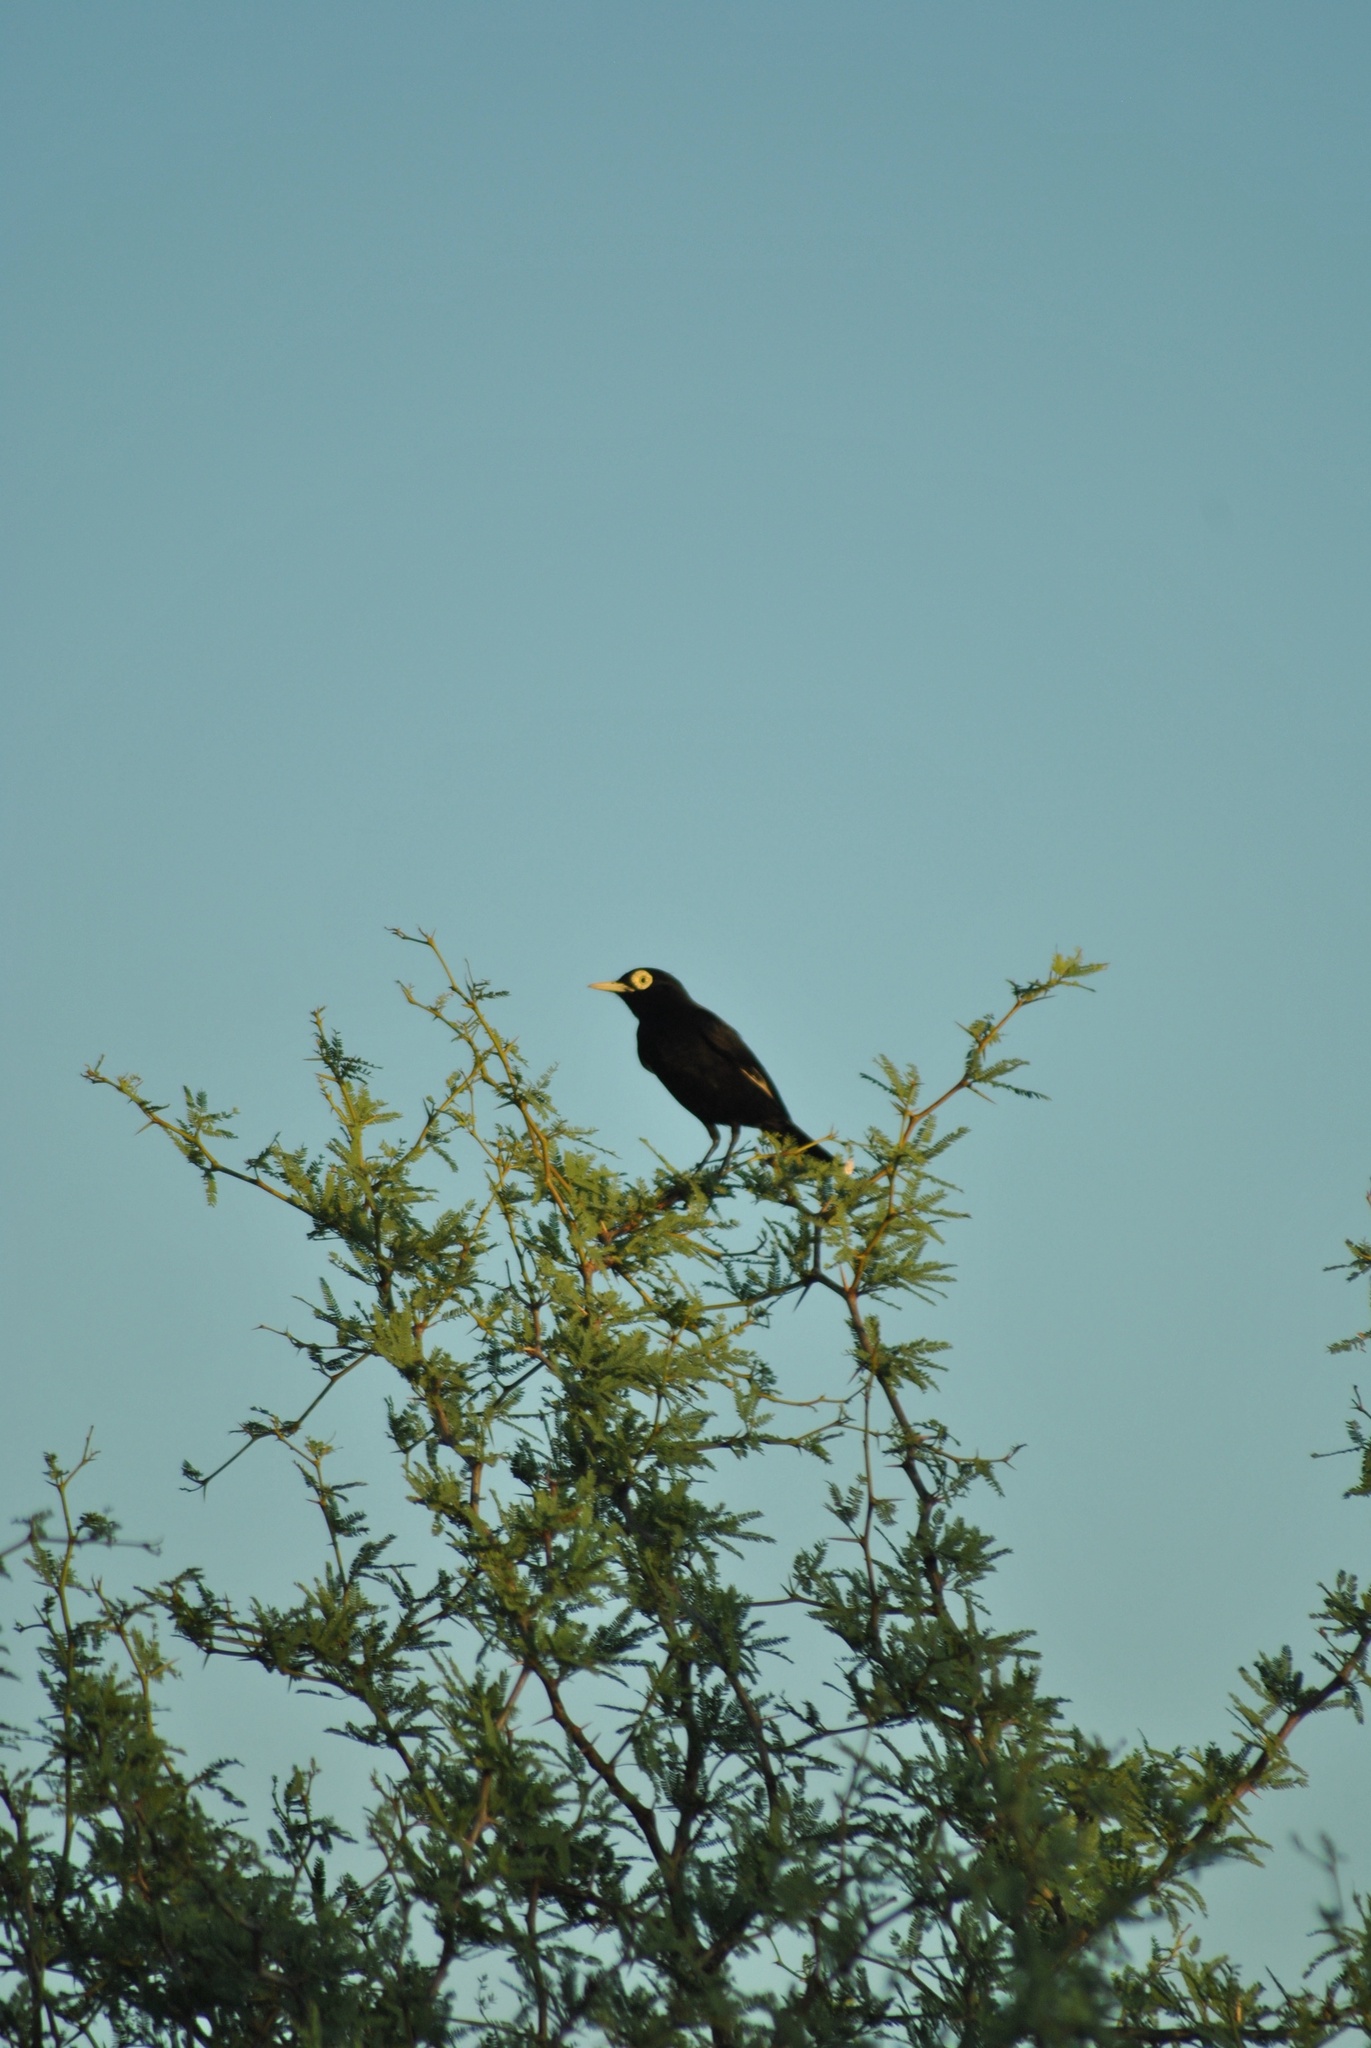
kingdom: Animalia
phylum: Chordata
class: Aves
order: Passeriformes
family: Tyrannidae
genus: Hymenops
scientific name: Hymenops perspicillatus
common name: Spectacled tyrant
